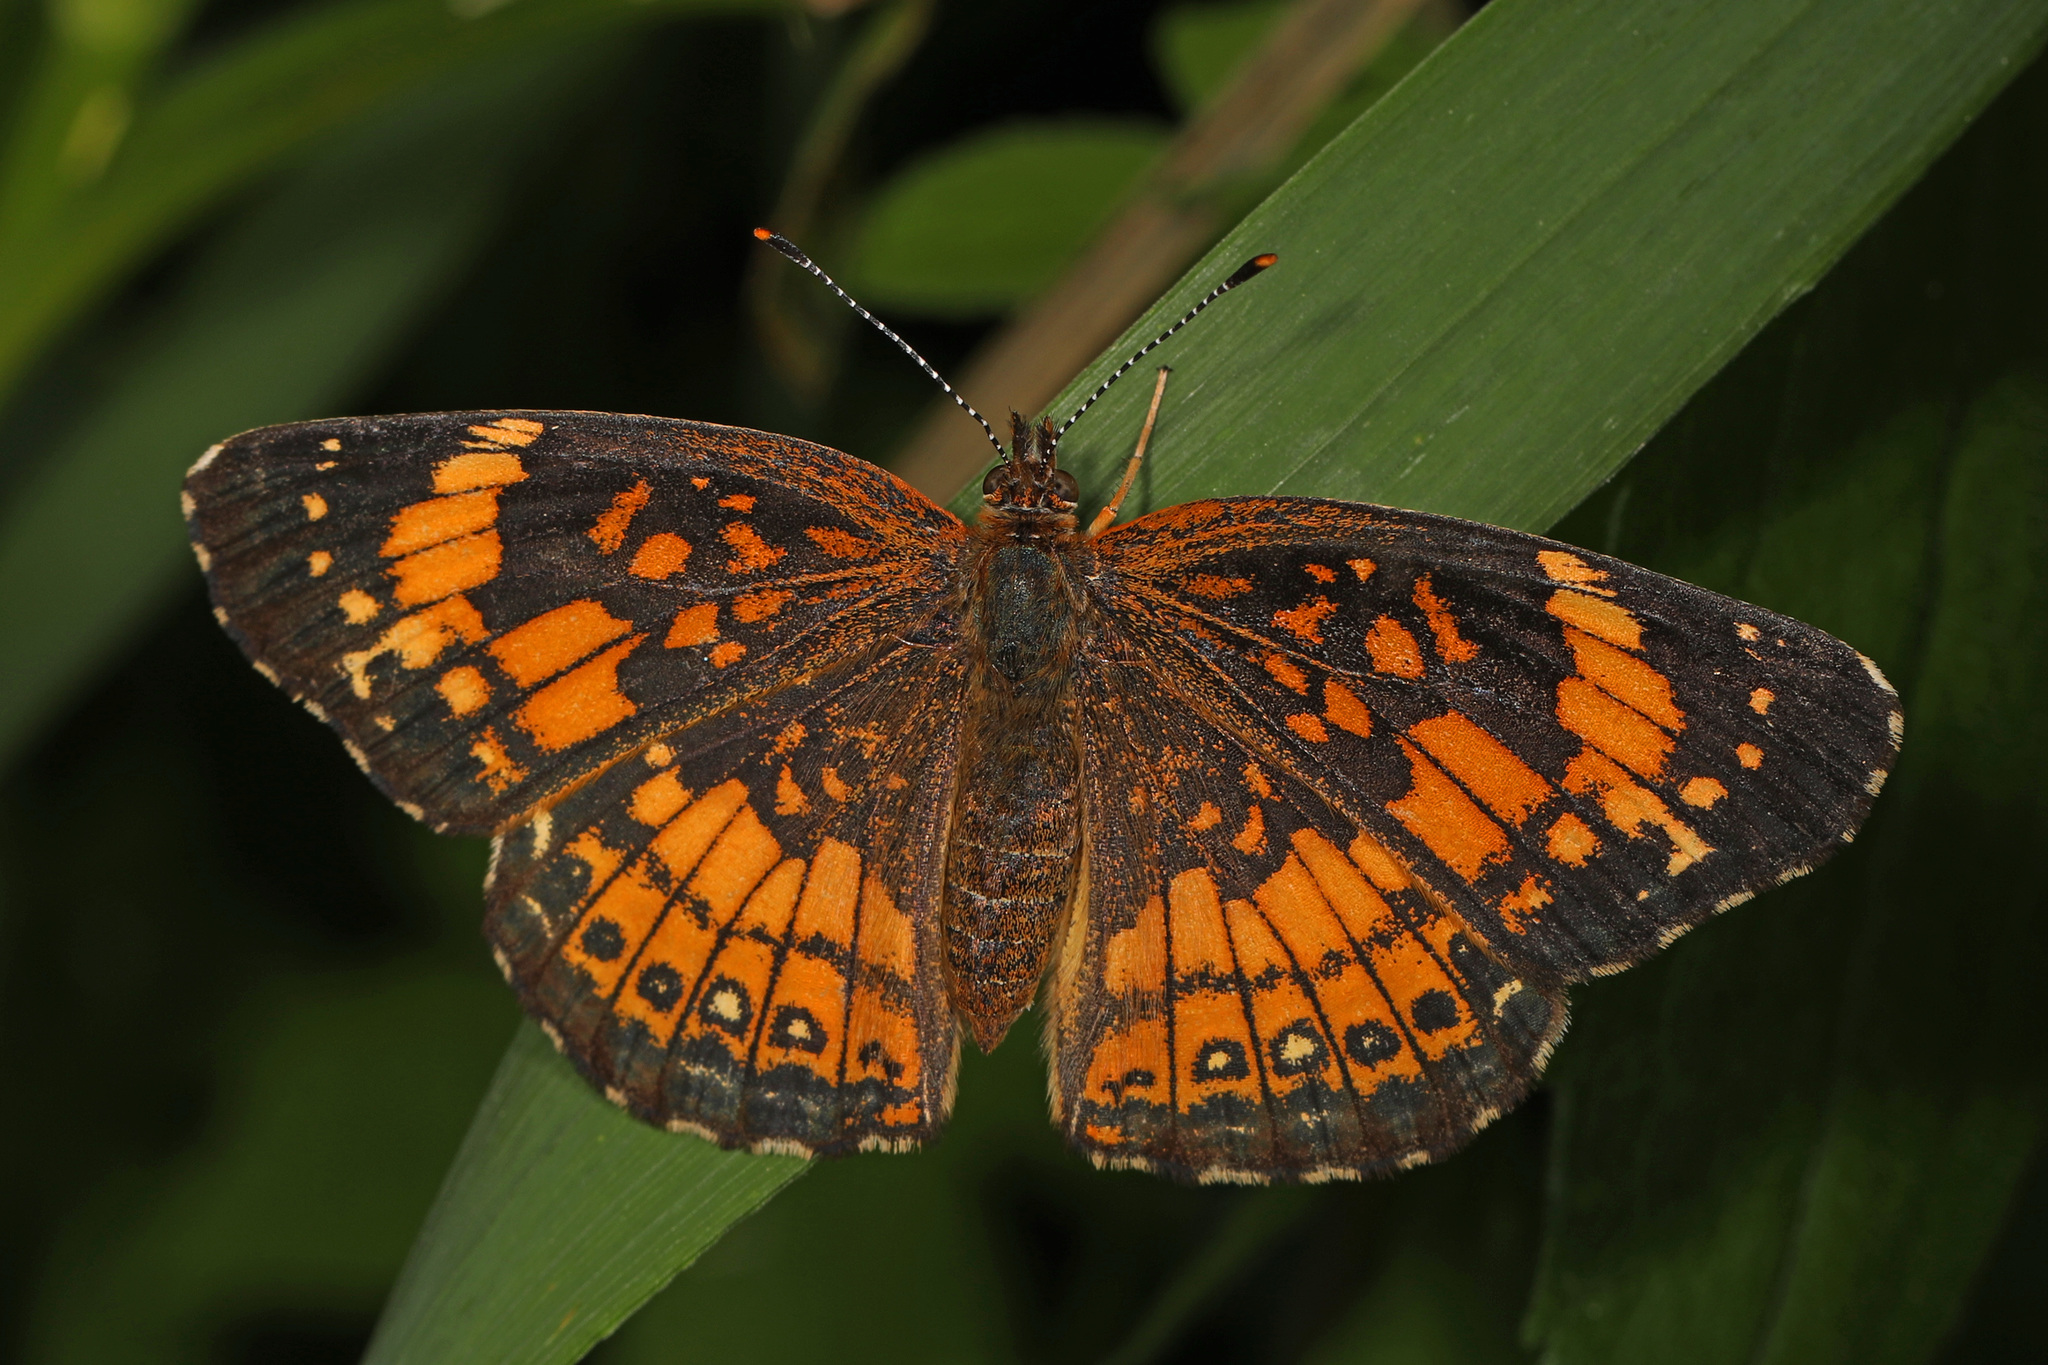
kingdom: Animalia
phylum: Arthropoda
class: Insecta
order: Lepidoptera
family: Nymphalidae
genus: Chlosyne
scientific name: Chlosyne nycteis
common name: Silvery checkerspot
